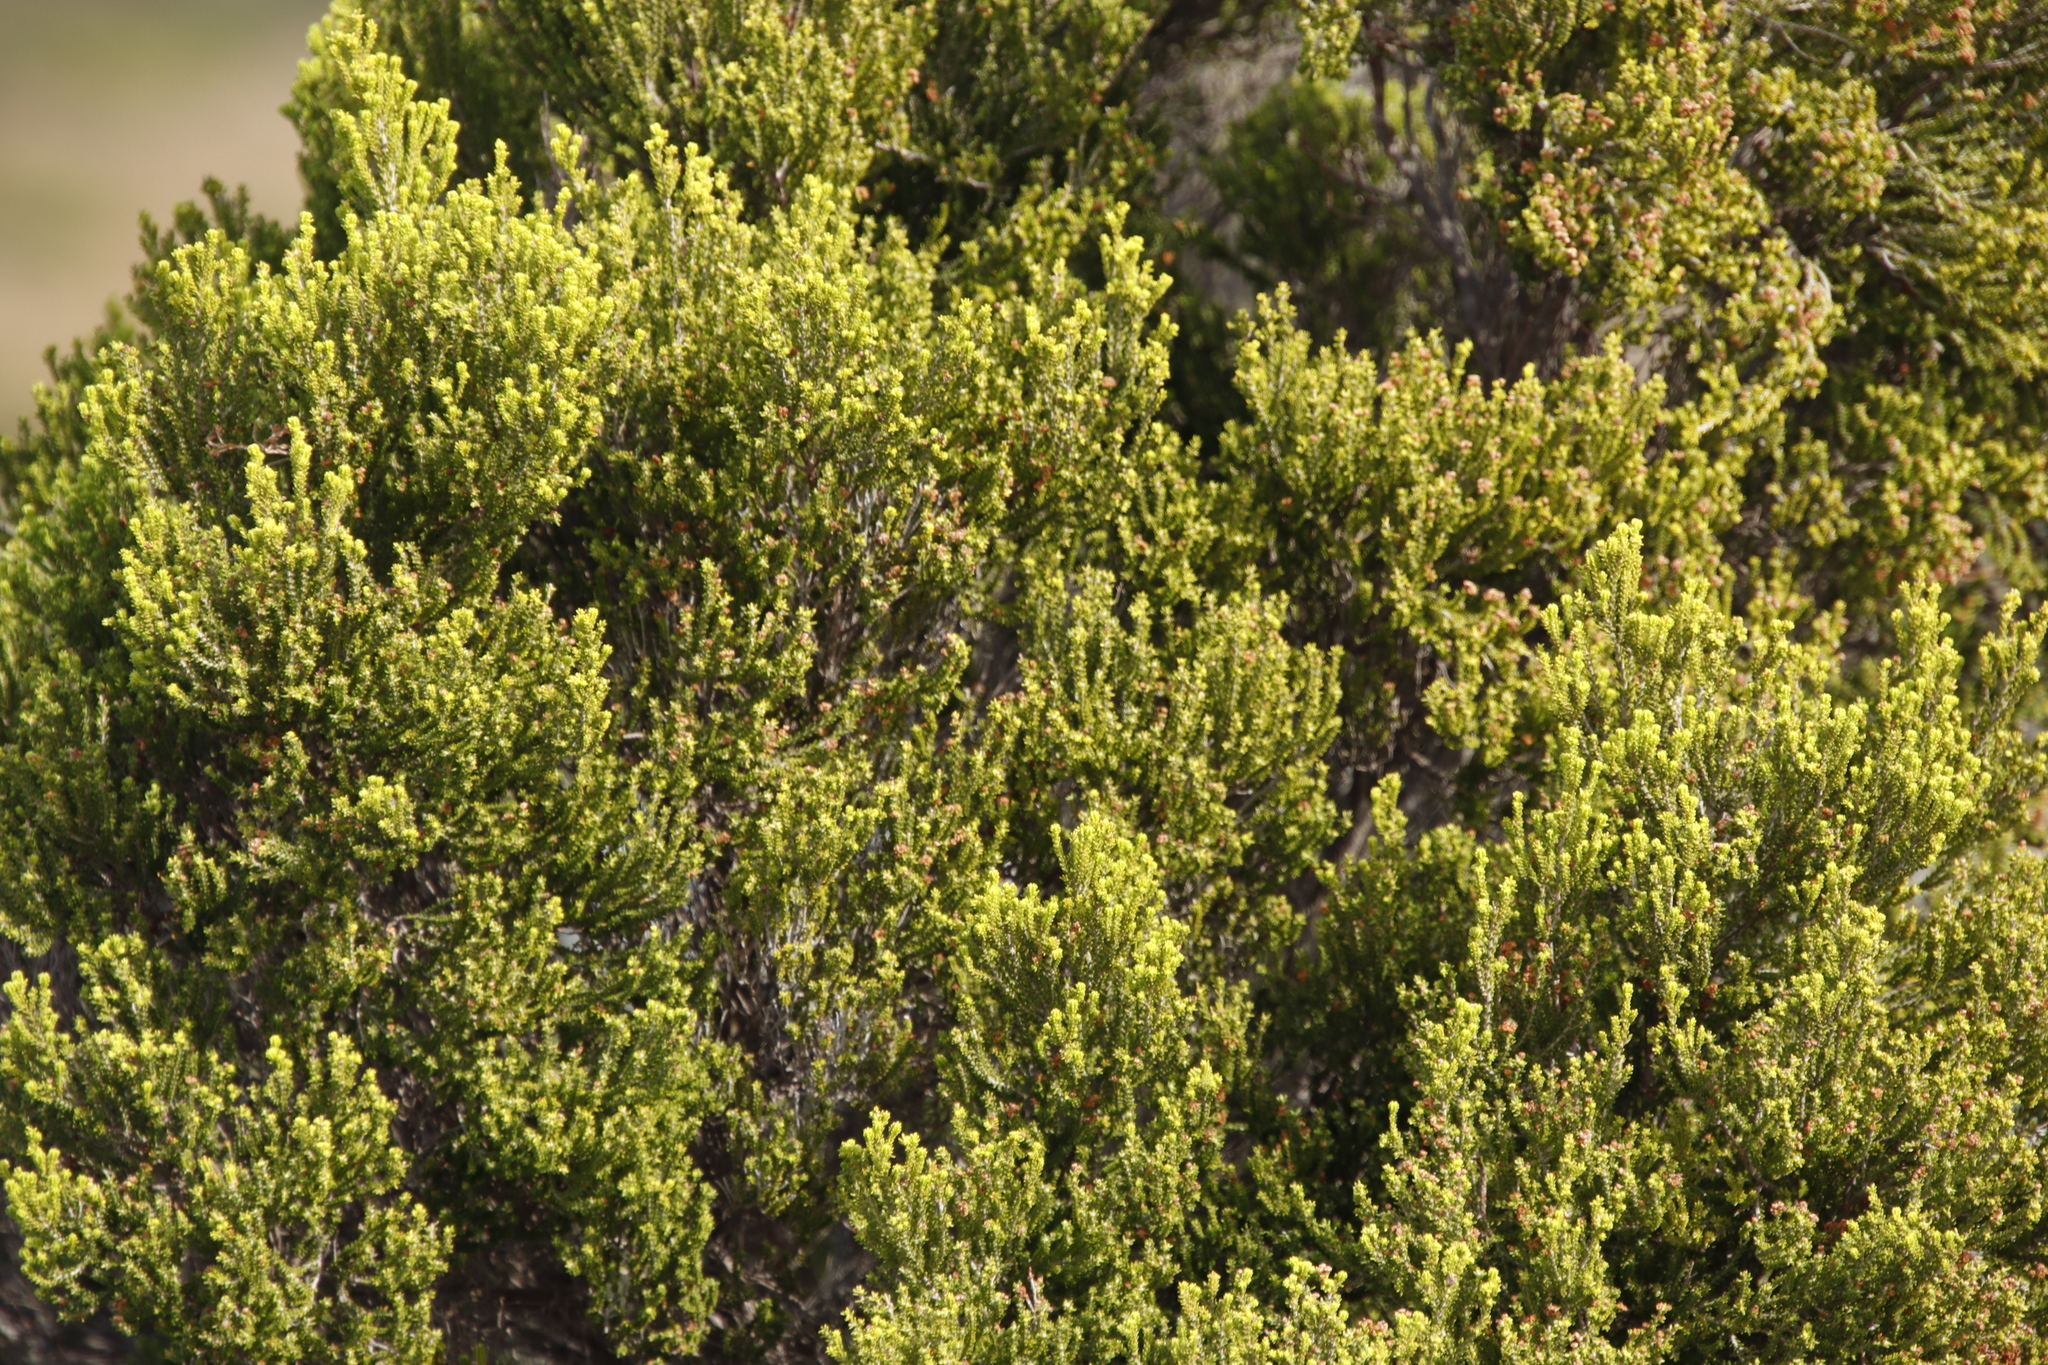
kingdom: Plantae
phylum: Tracheophyta
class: Magnoliopsida
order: Ericales
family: Ericaceae
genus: Erica
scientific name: Erica tristis
